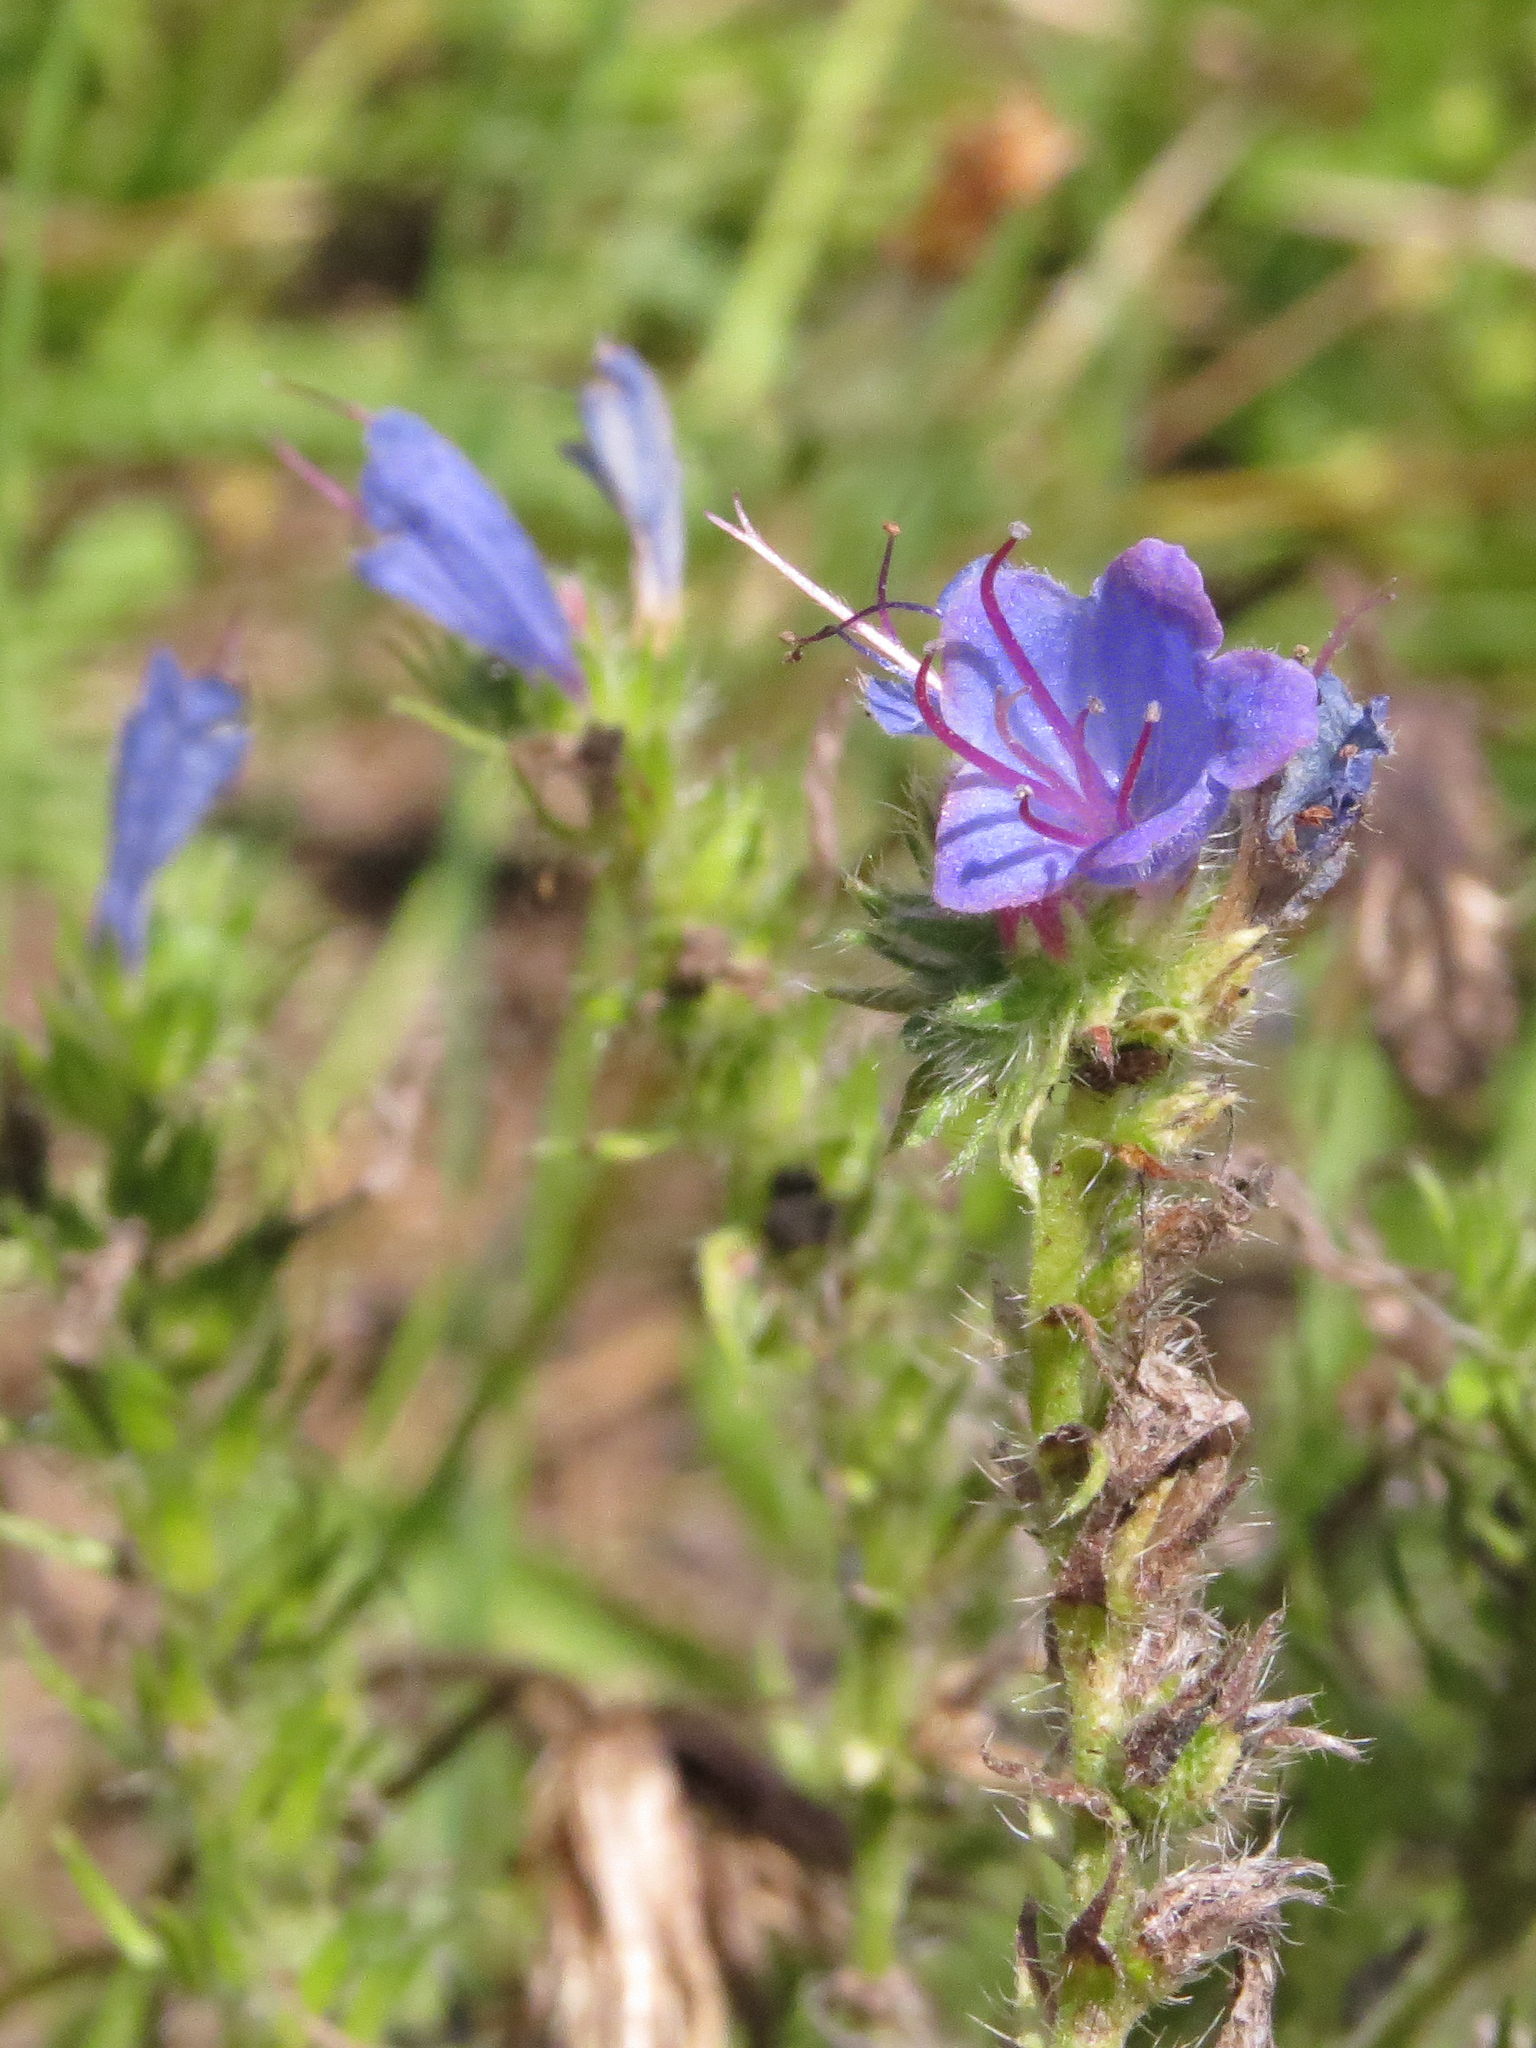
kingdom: Plantae
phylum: Tracheophyta
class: Magnoliopsida
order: Boraginales
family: Boraginaceae
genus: Echium
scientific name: Echium vulgare
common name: Common viper's bugloss
